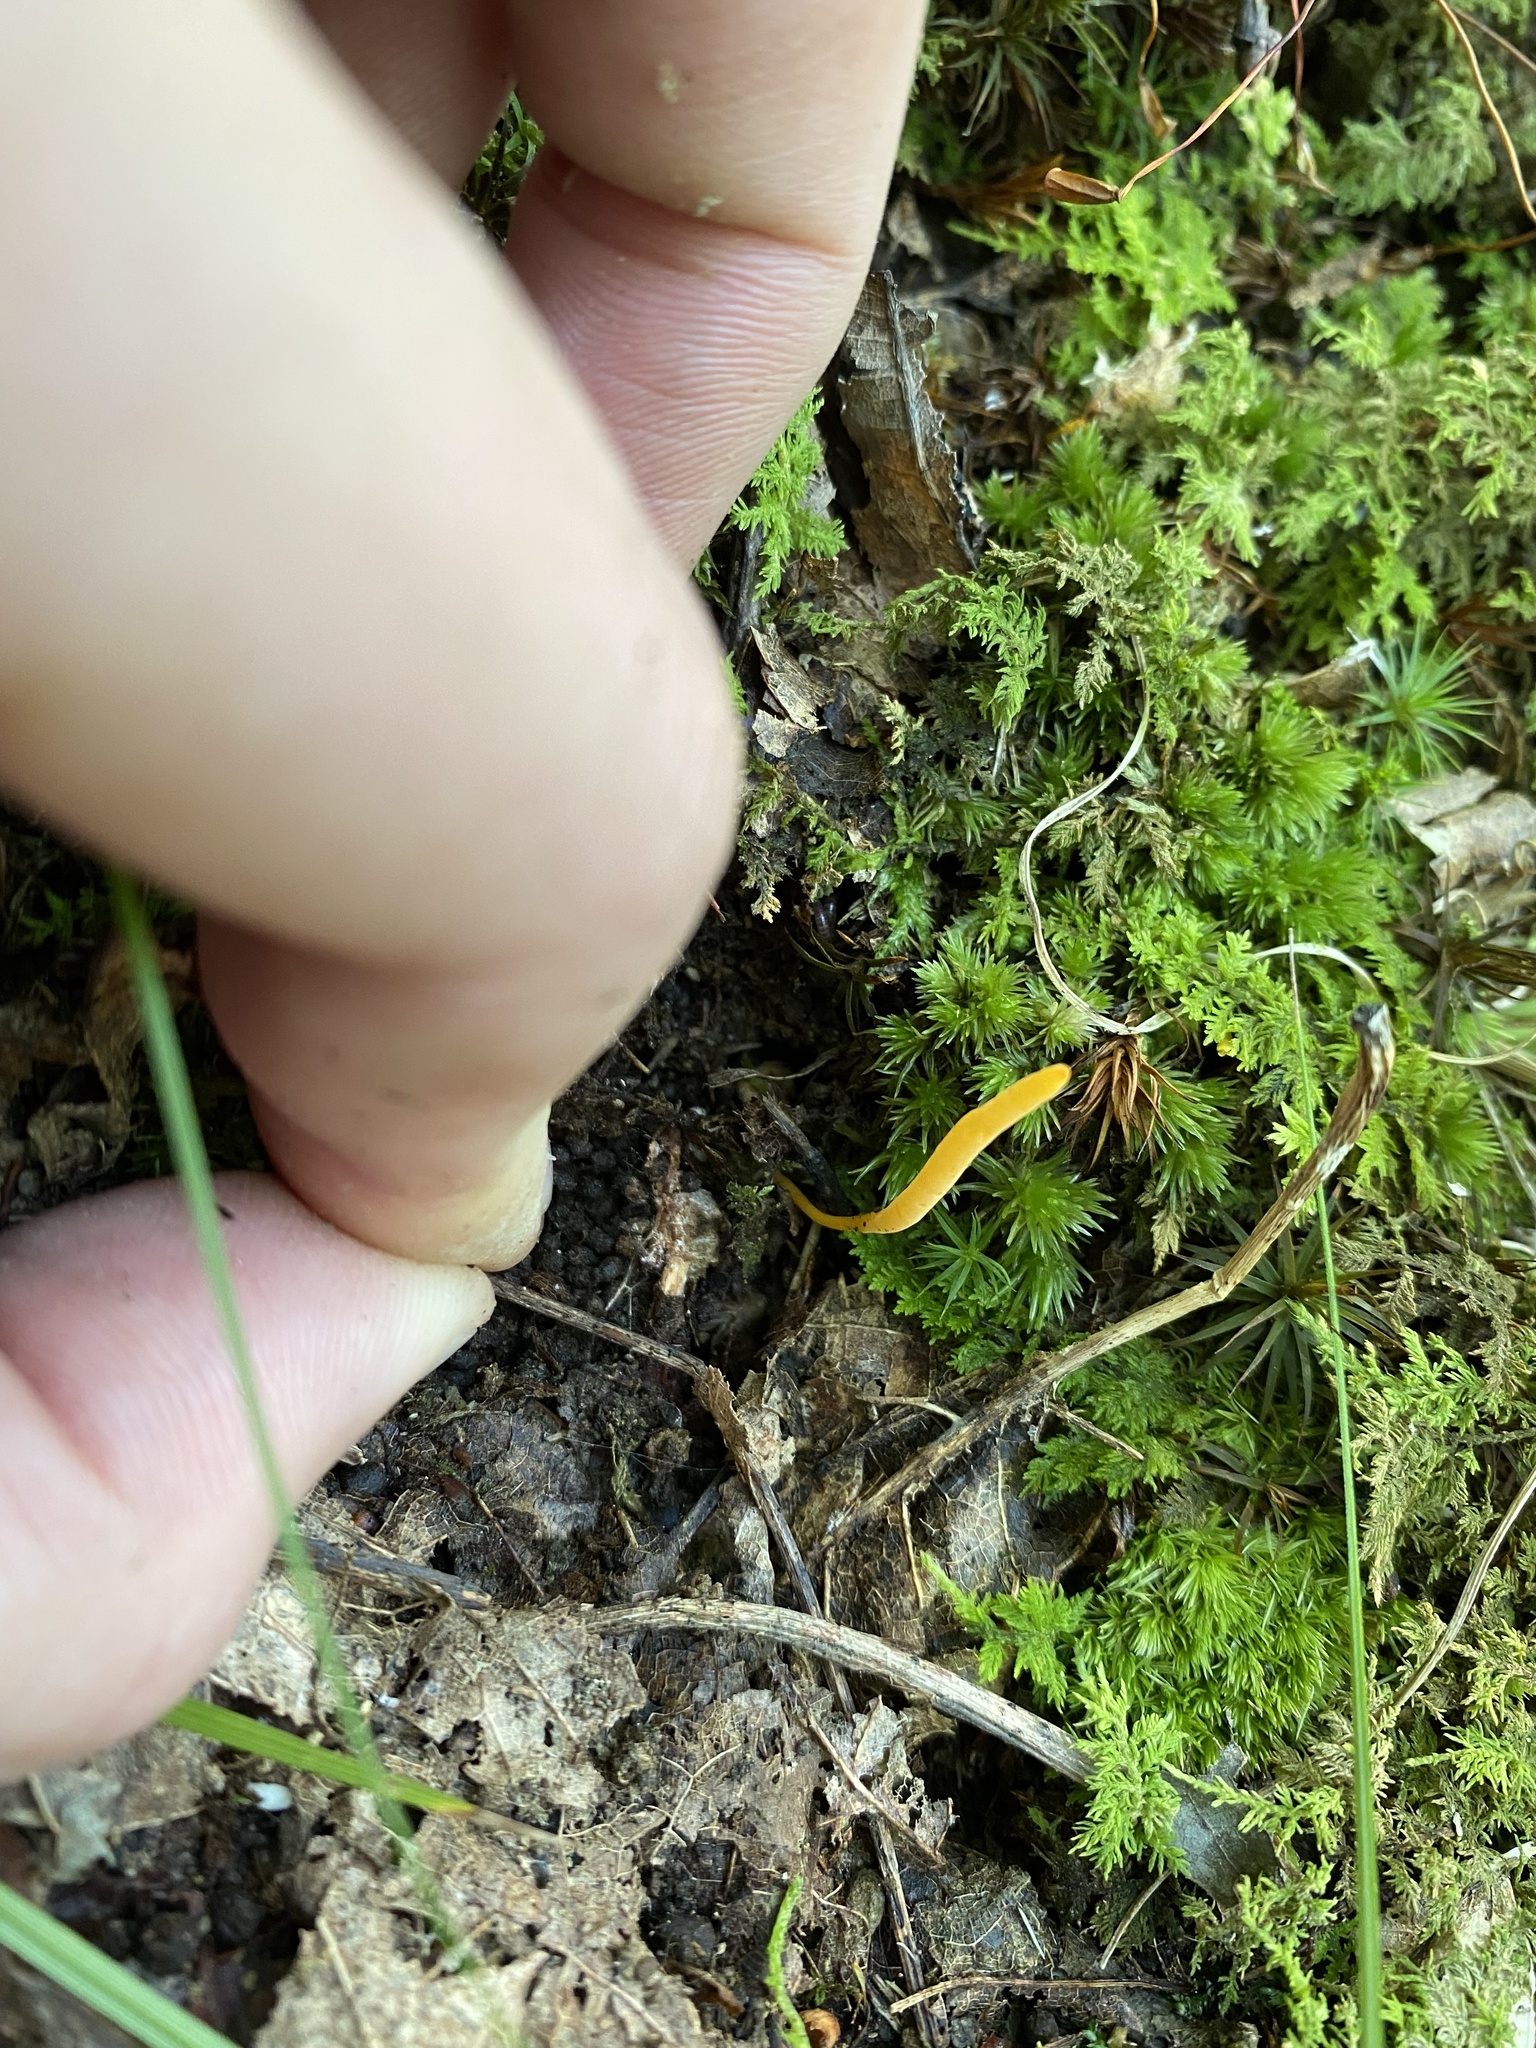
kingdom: Fungi
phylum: Basidiomycota
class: Agaricomycetes
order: Agaricales
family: Clavariaceae
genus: Clavulinopsis
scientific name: Clavulinopsis laeticolor
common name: Handsome club
